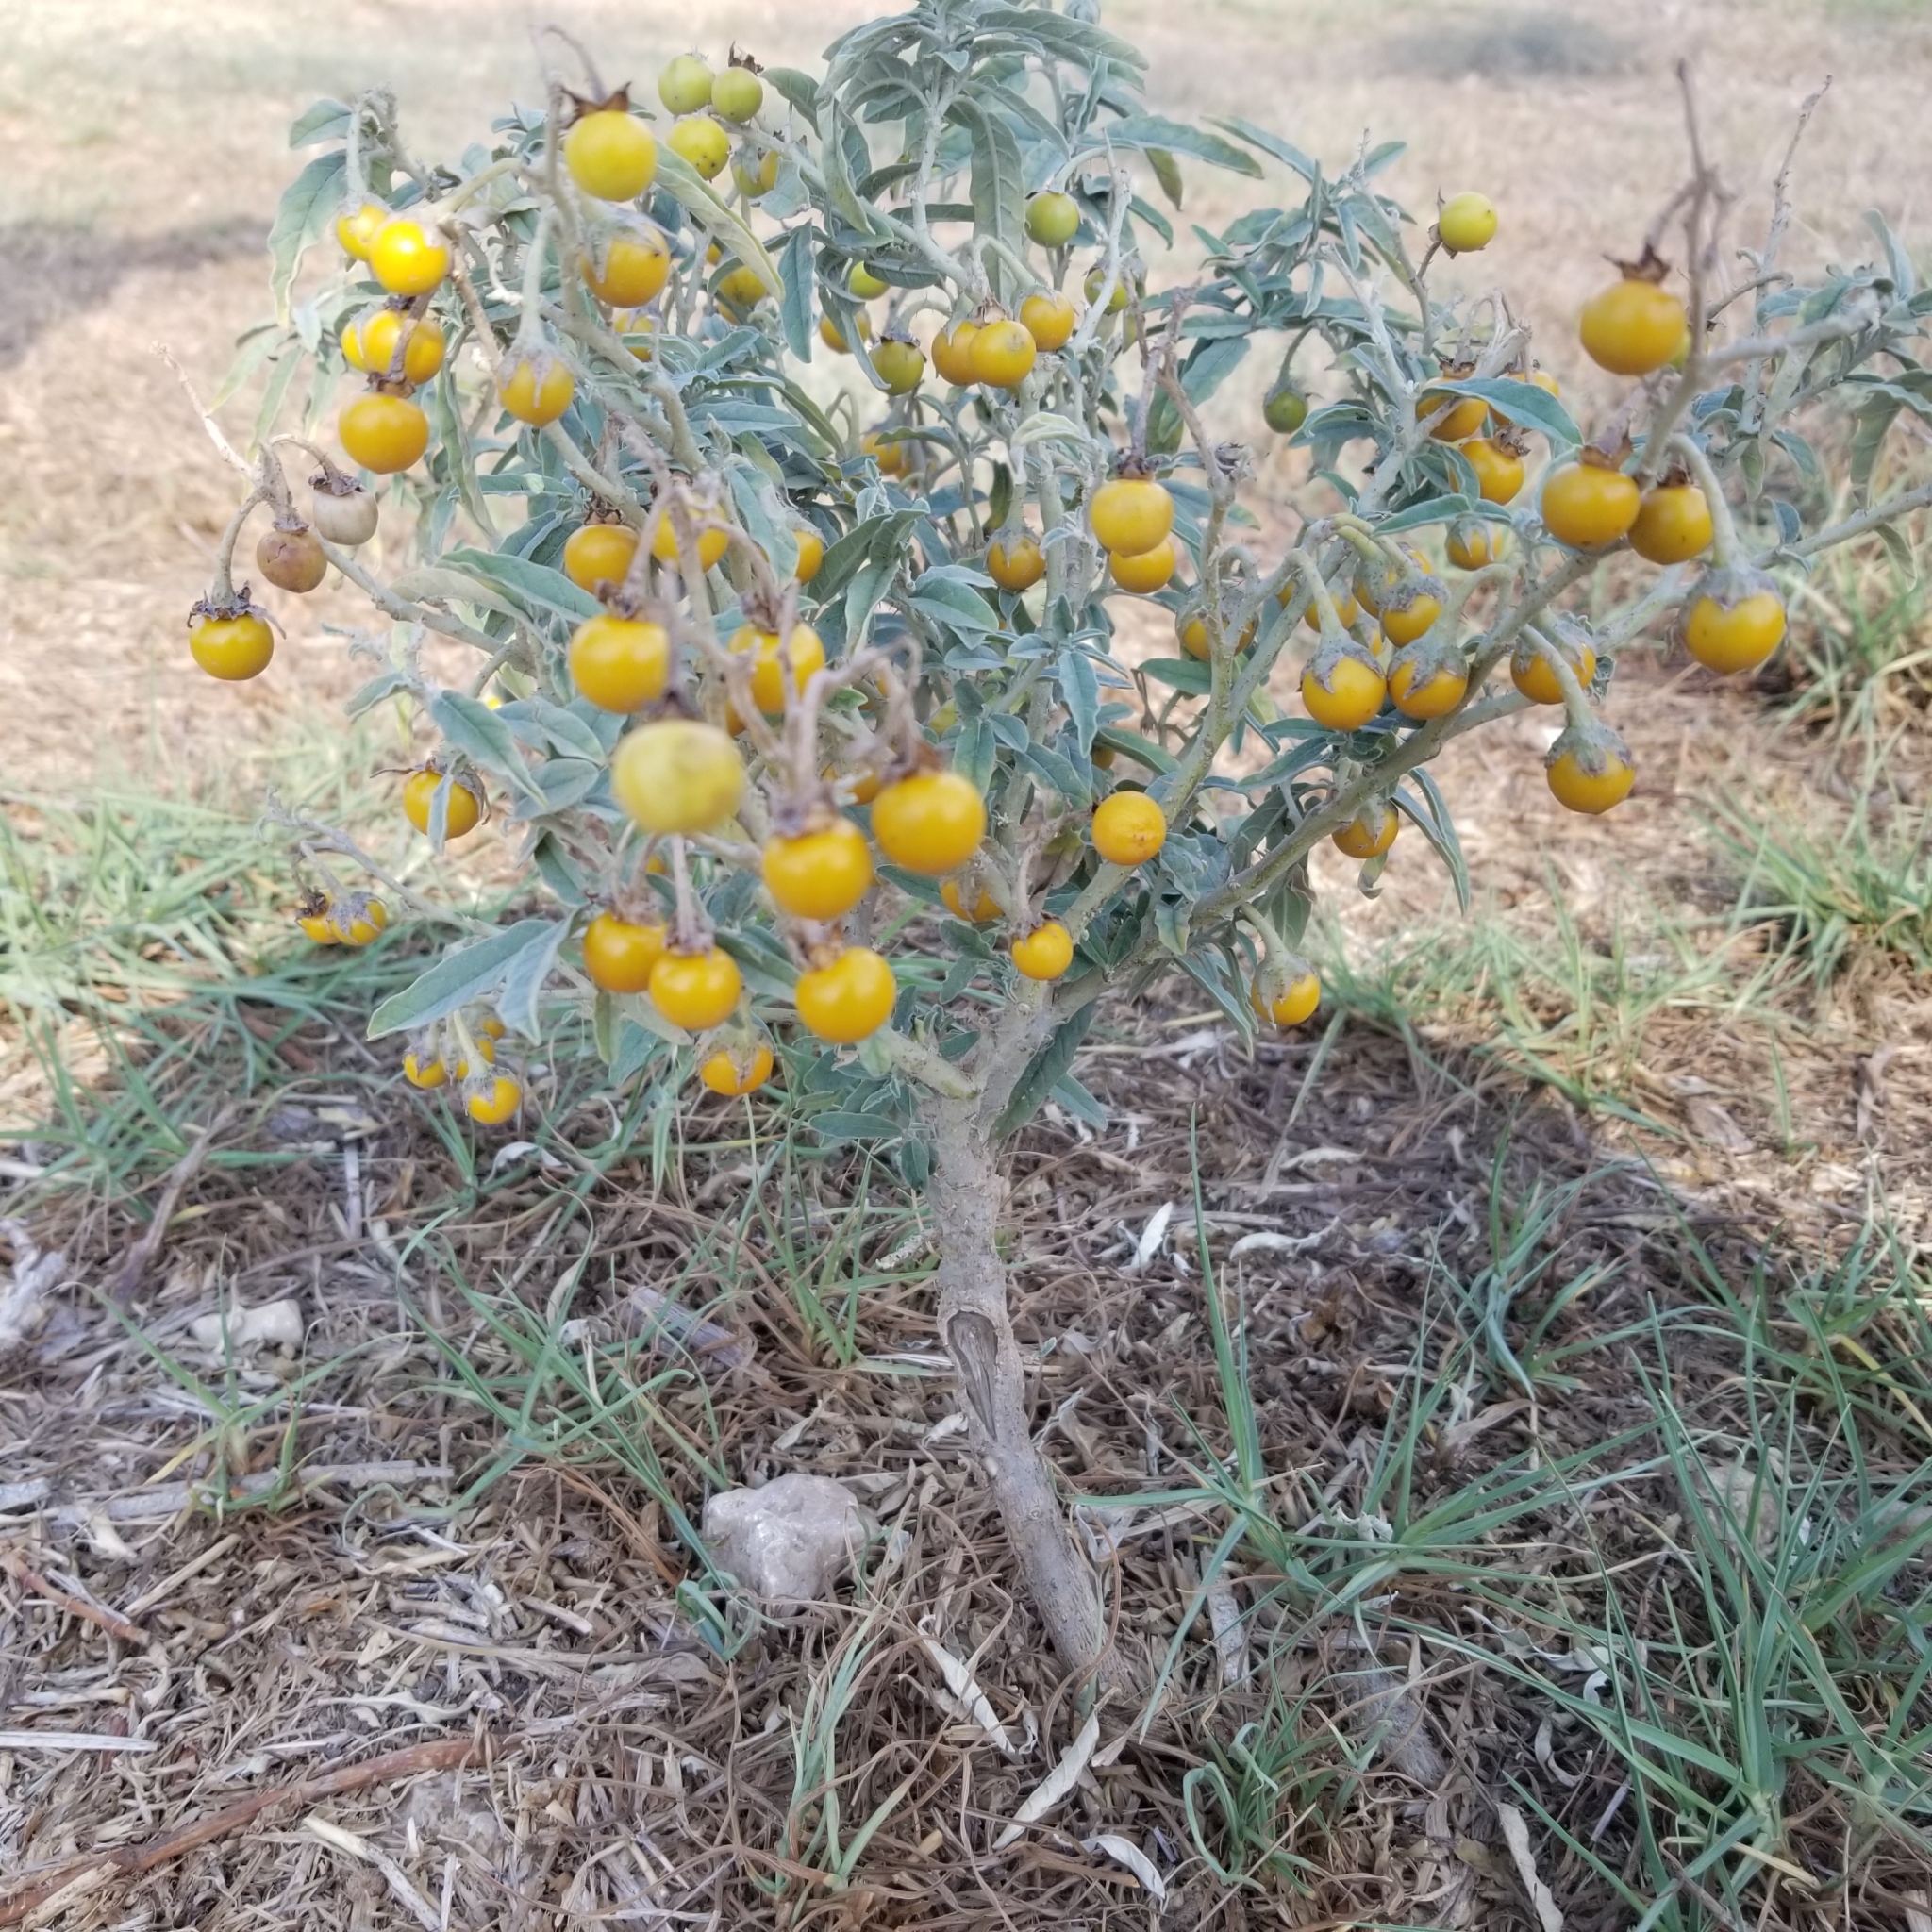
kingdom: Plantae
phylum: Tracheophyta
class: Magnoliopsida
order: Solanales
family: Solanaceae
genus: Solanum
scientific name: Solanum elaeagnifolium
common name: Silverleaf nightshade
